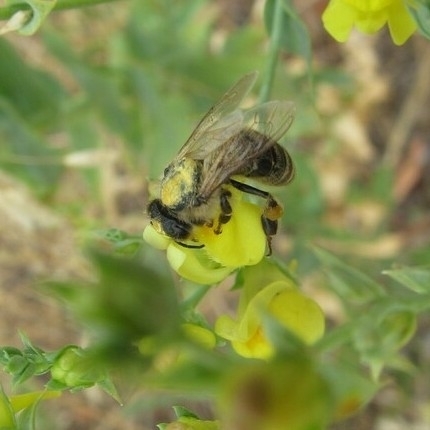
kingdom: Animalia
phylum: Arthropoda
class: Insecta
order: Hymenoptera
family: Apidae
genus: Apis
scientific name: Apis mellifera
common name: Honey bee
